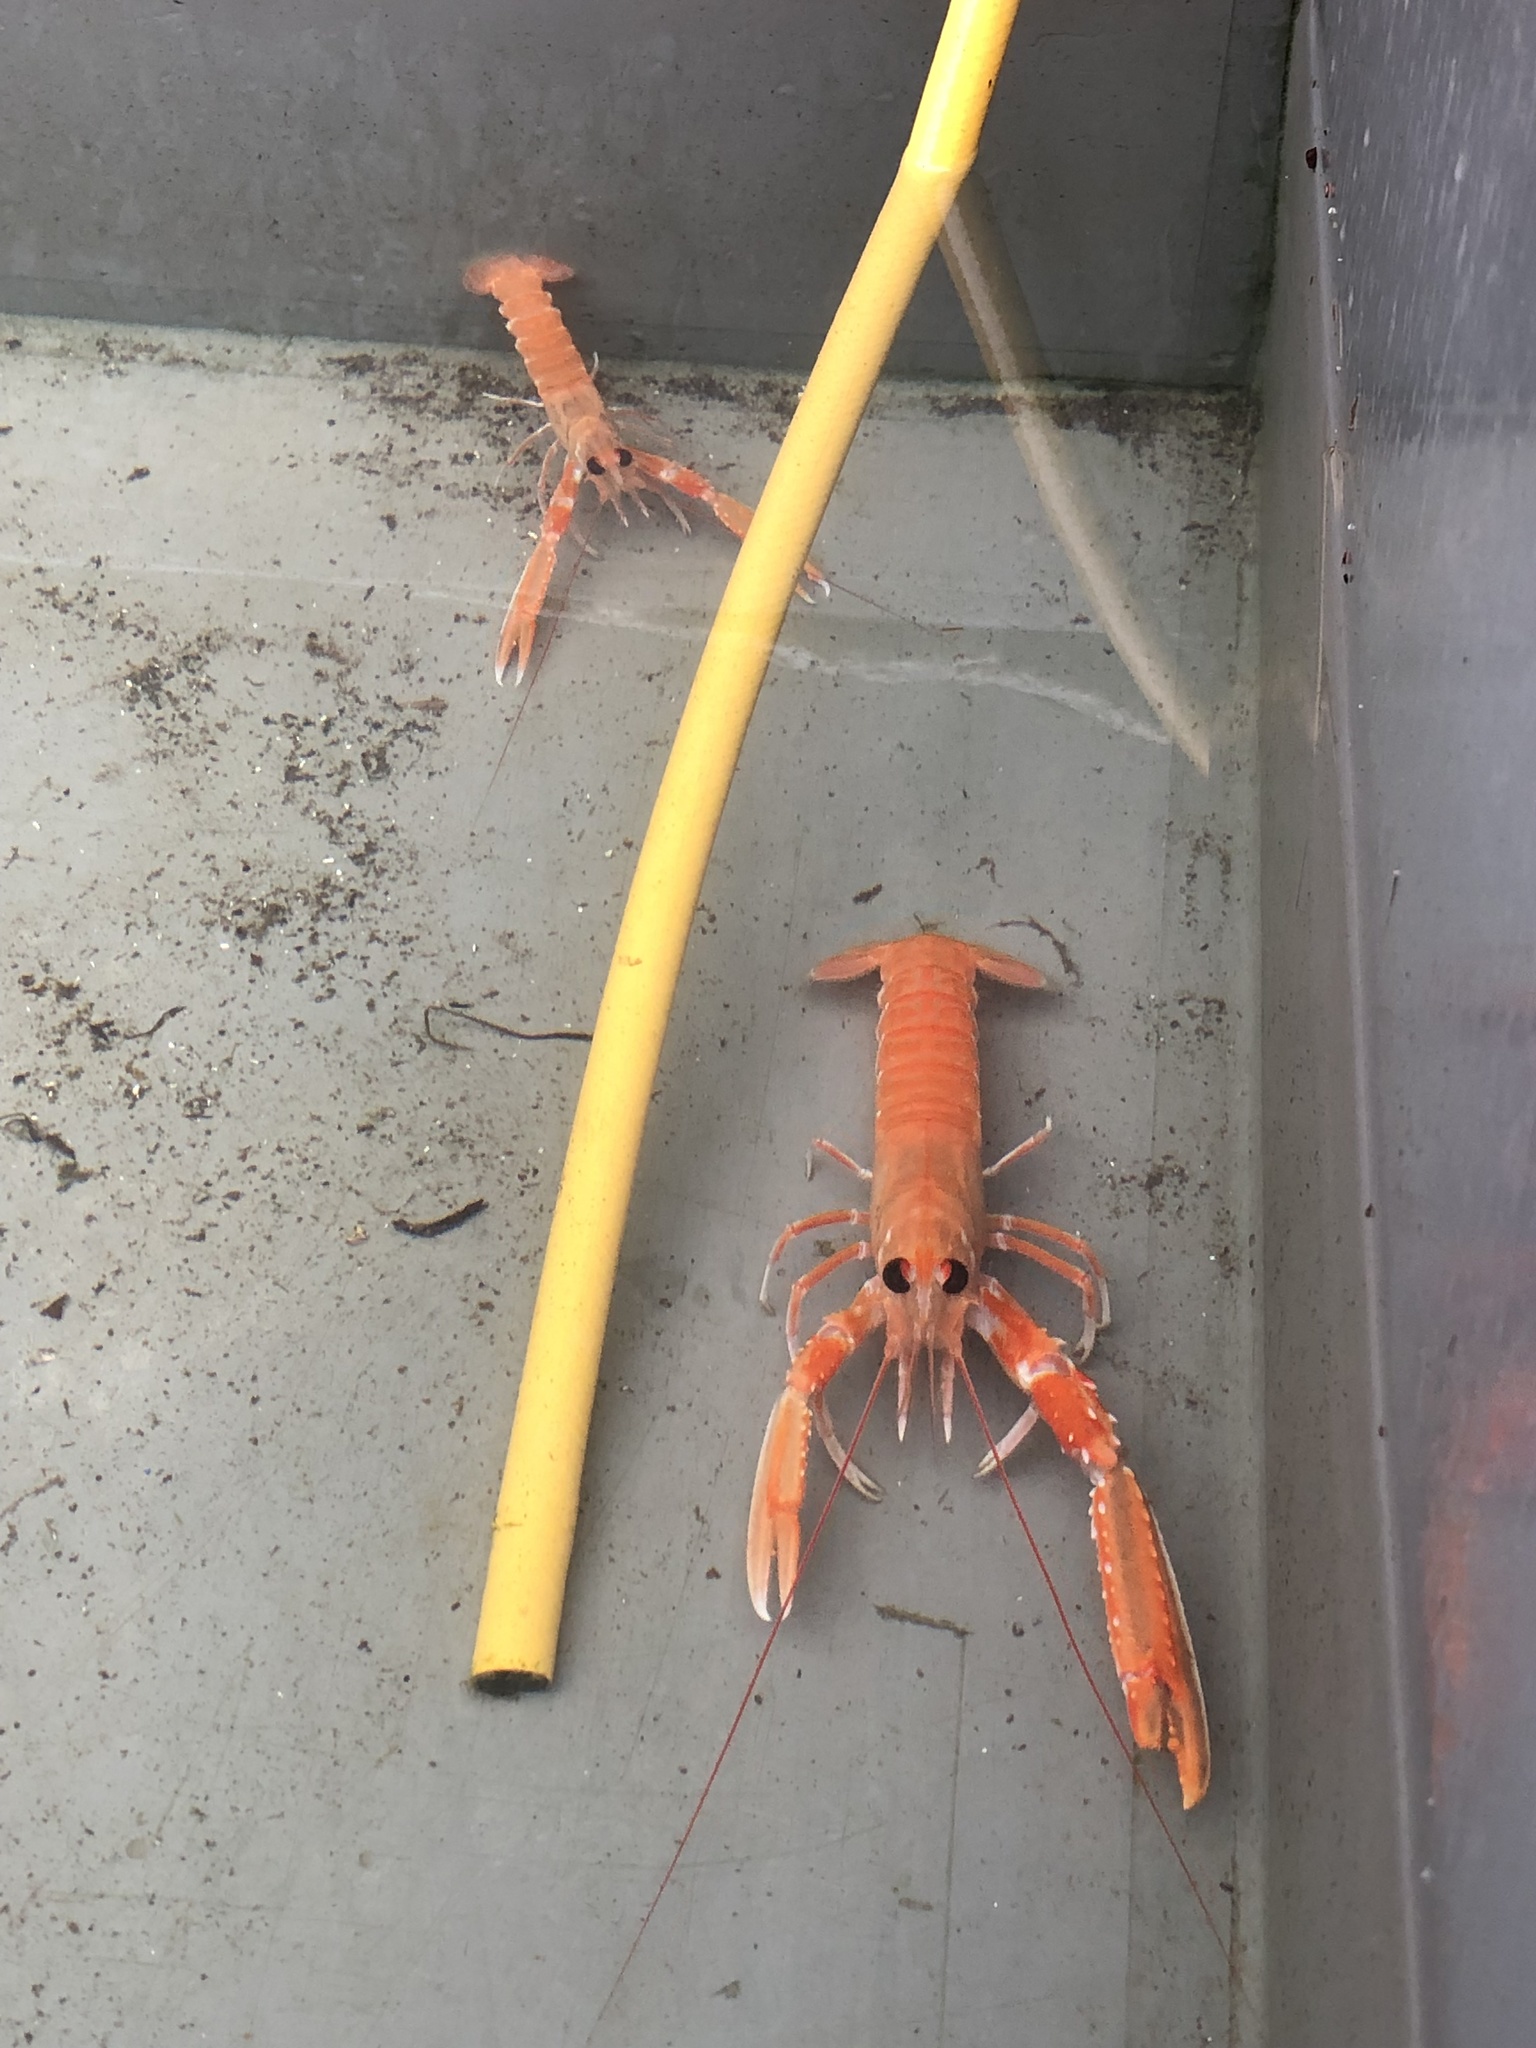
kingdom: Animalia
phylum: Arthropoda
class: Malacostraca
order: Decapoda
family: Nephropidae
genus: Nephrops
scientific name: Nephrops norvegicus
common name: Norway lobster
